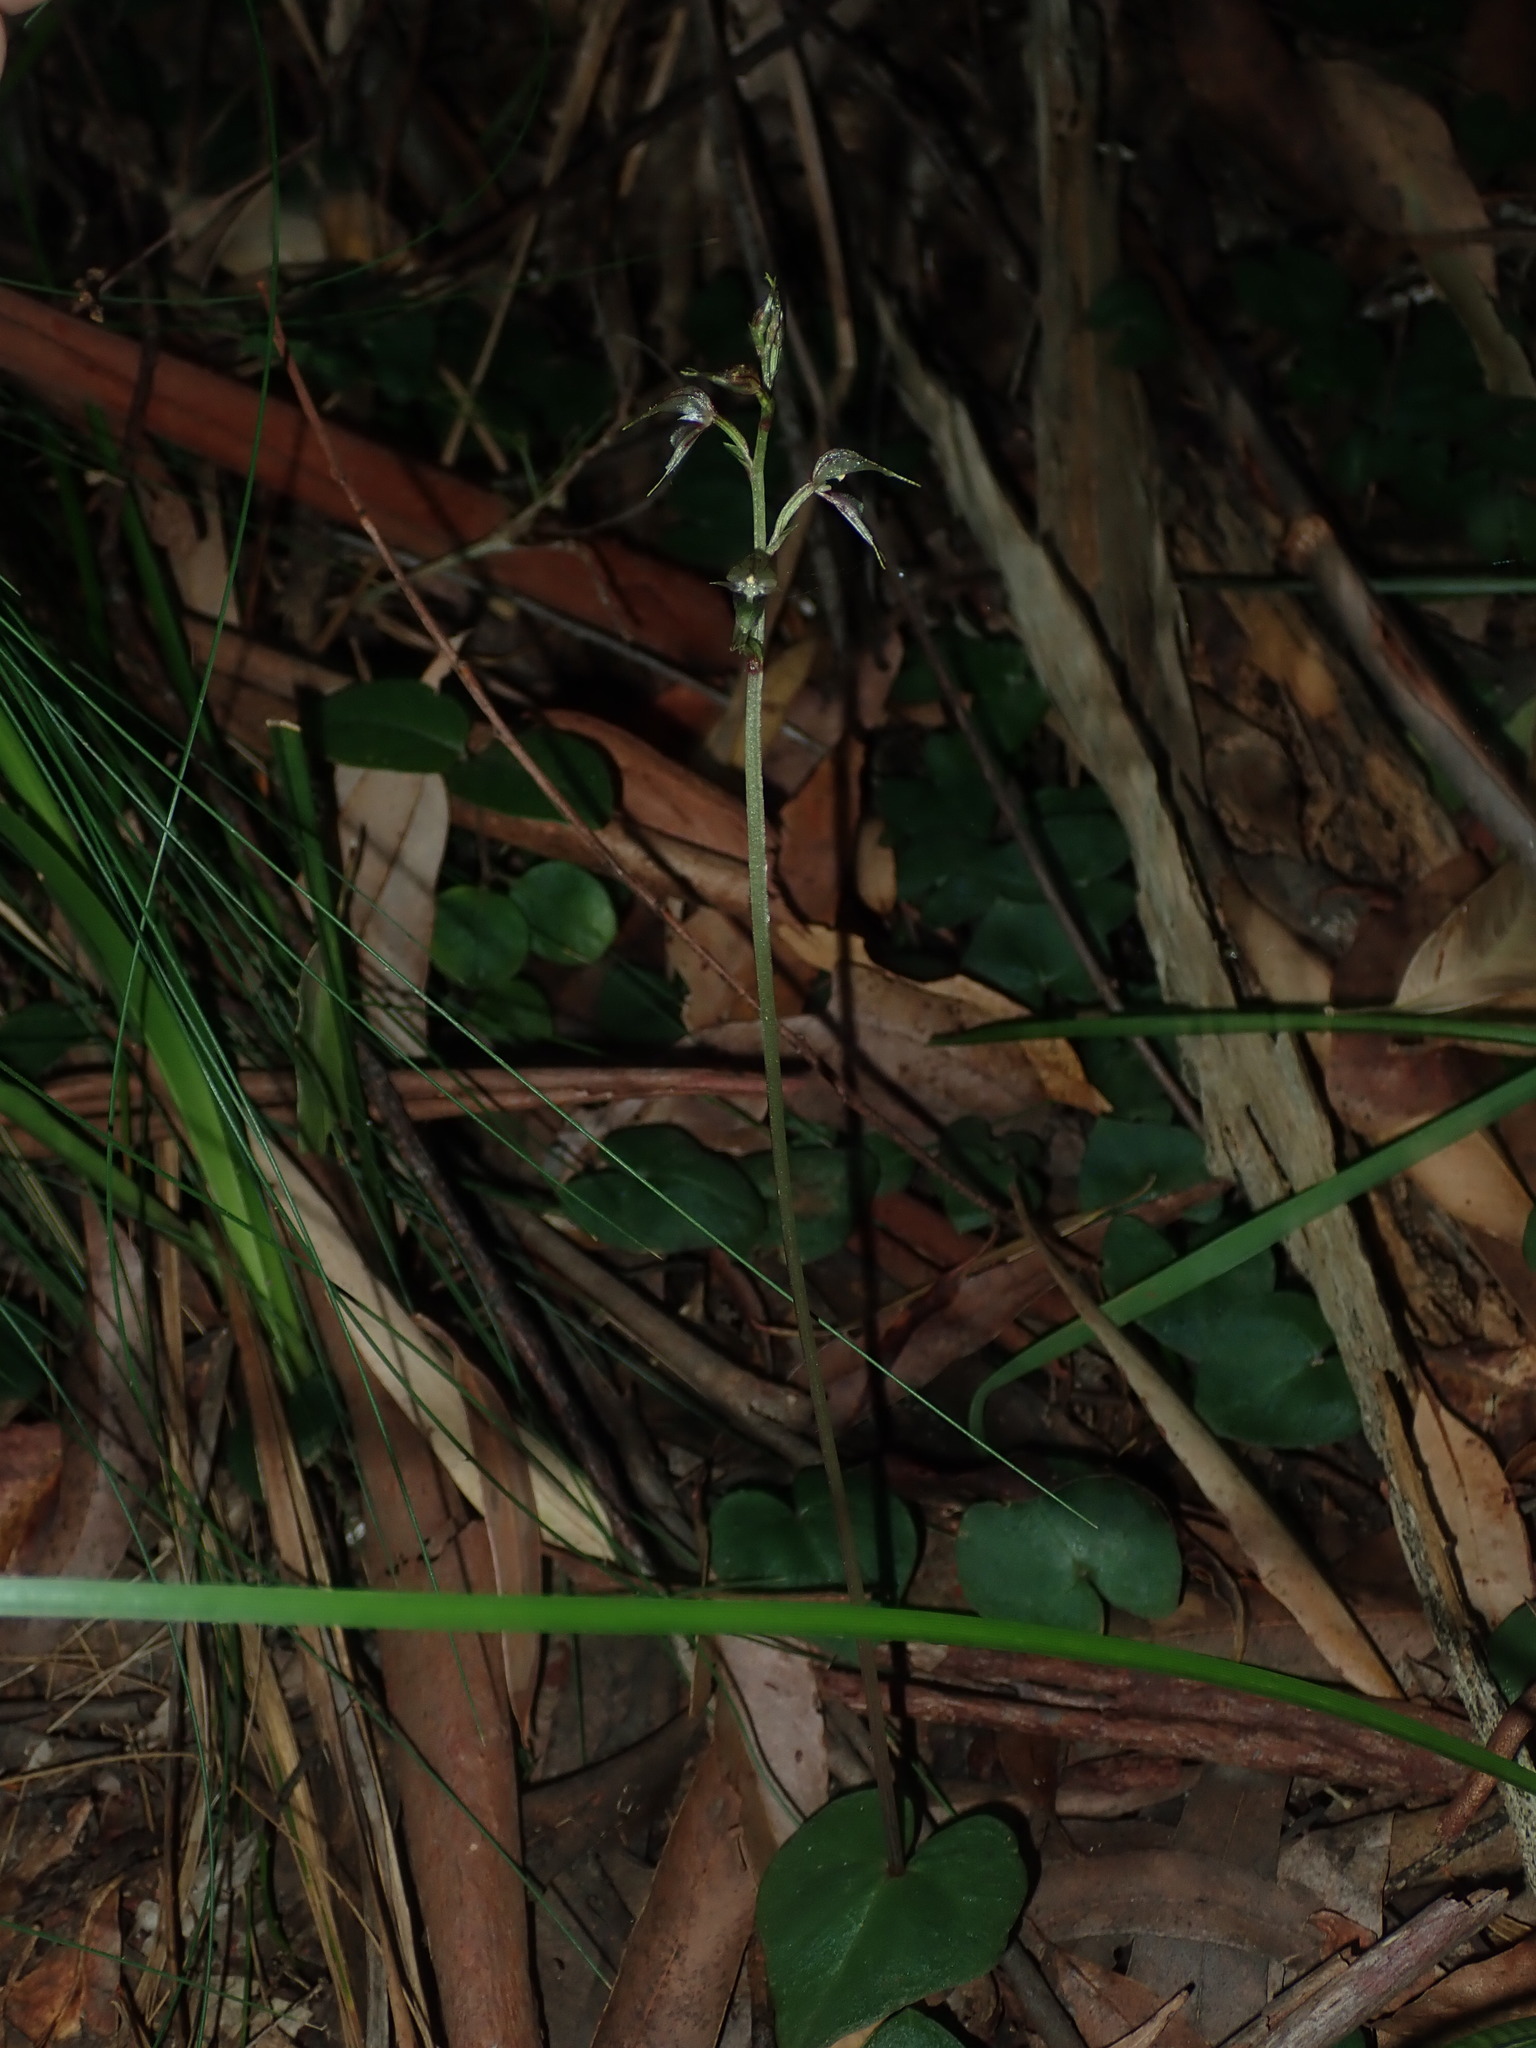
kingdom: Plantae
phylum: Tracheophyta
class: Liliopsida
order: Asparagales
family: Orchidaceae
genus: Acianthus
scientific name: Acianthus fornicatus
